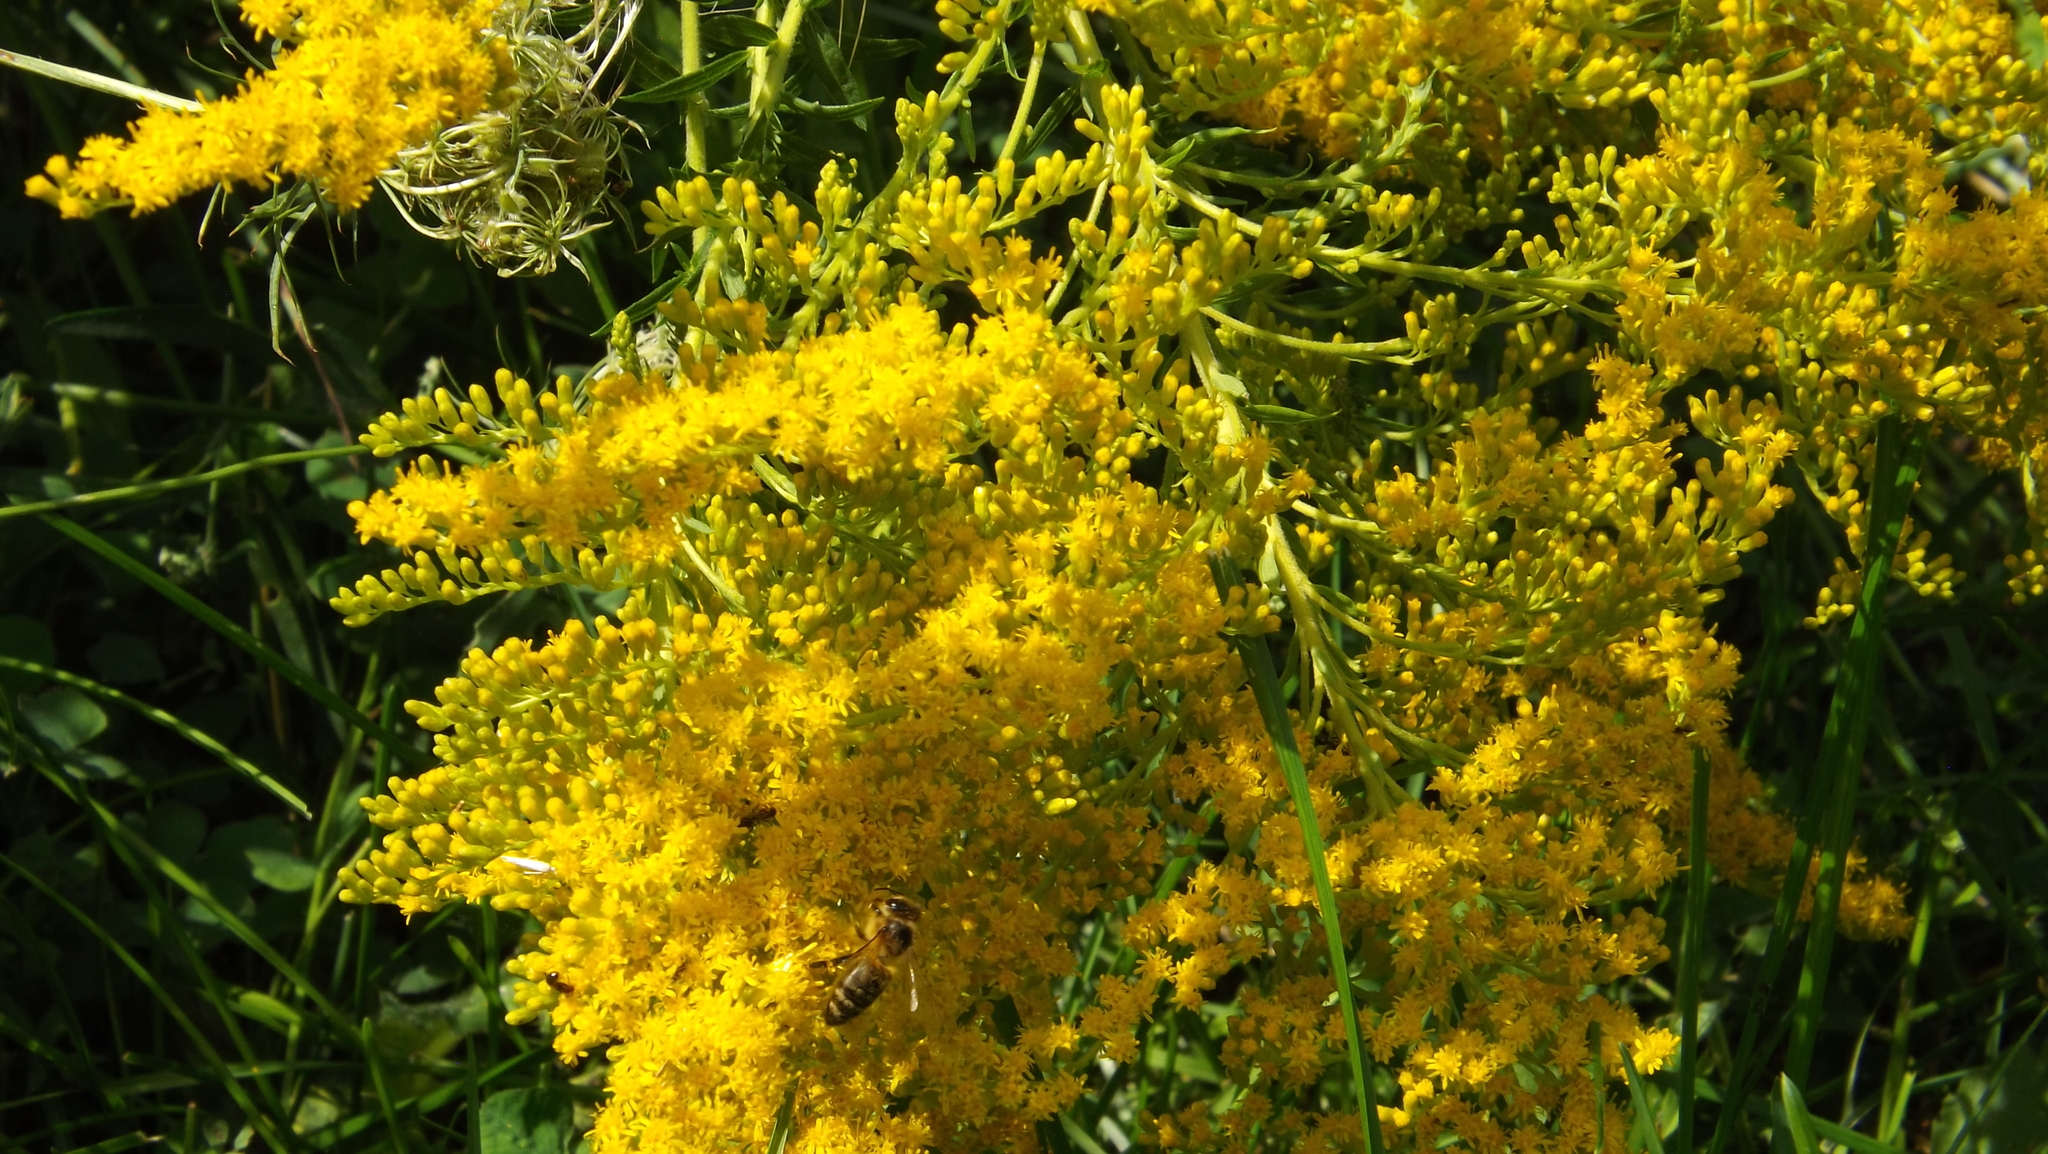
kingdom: Animalia
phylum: Arthropoda
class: Insecta
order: Hymenoptera
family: Apidae
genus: Apis
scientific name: Apis mellifera
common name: Honey bee
